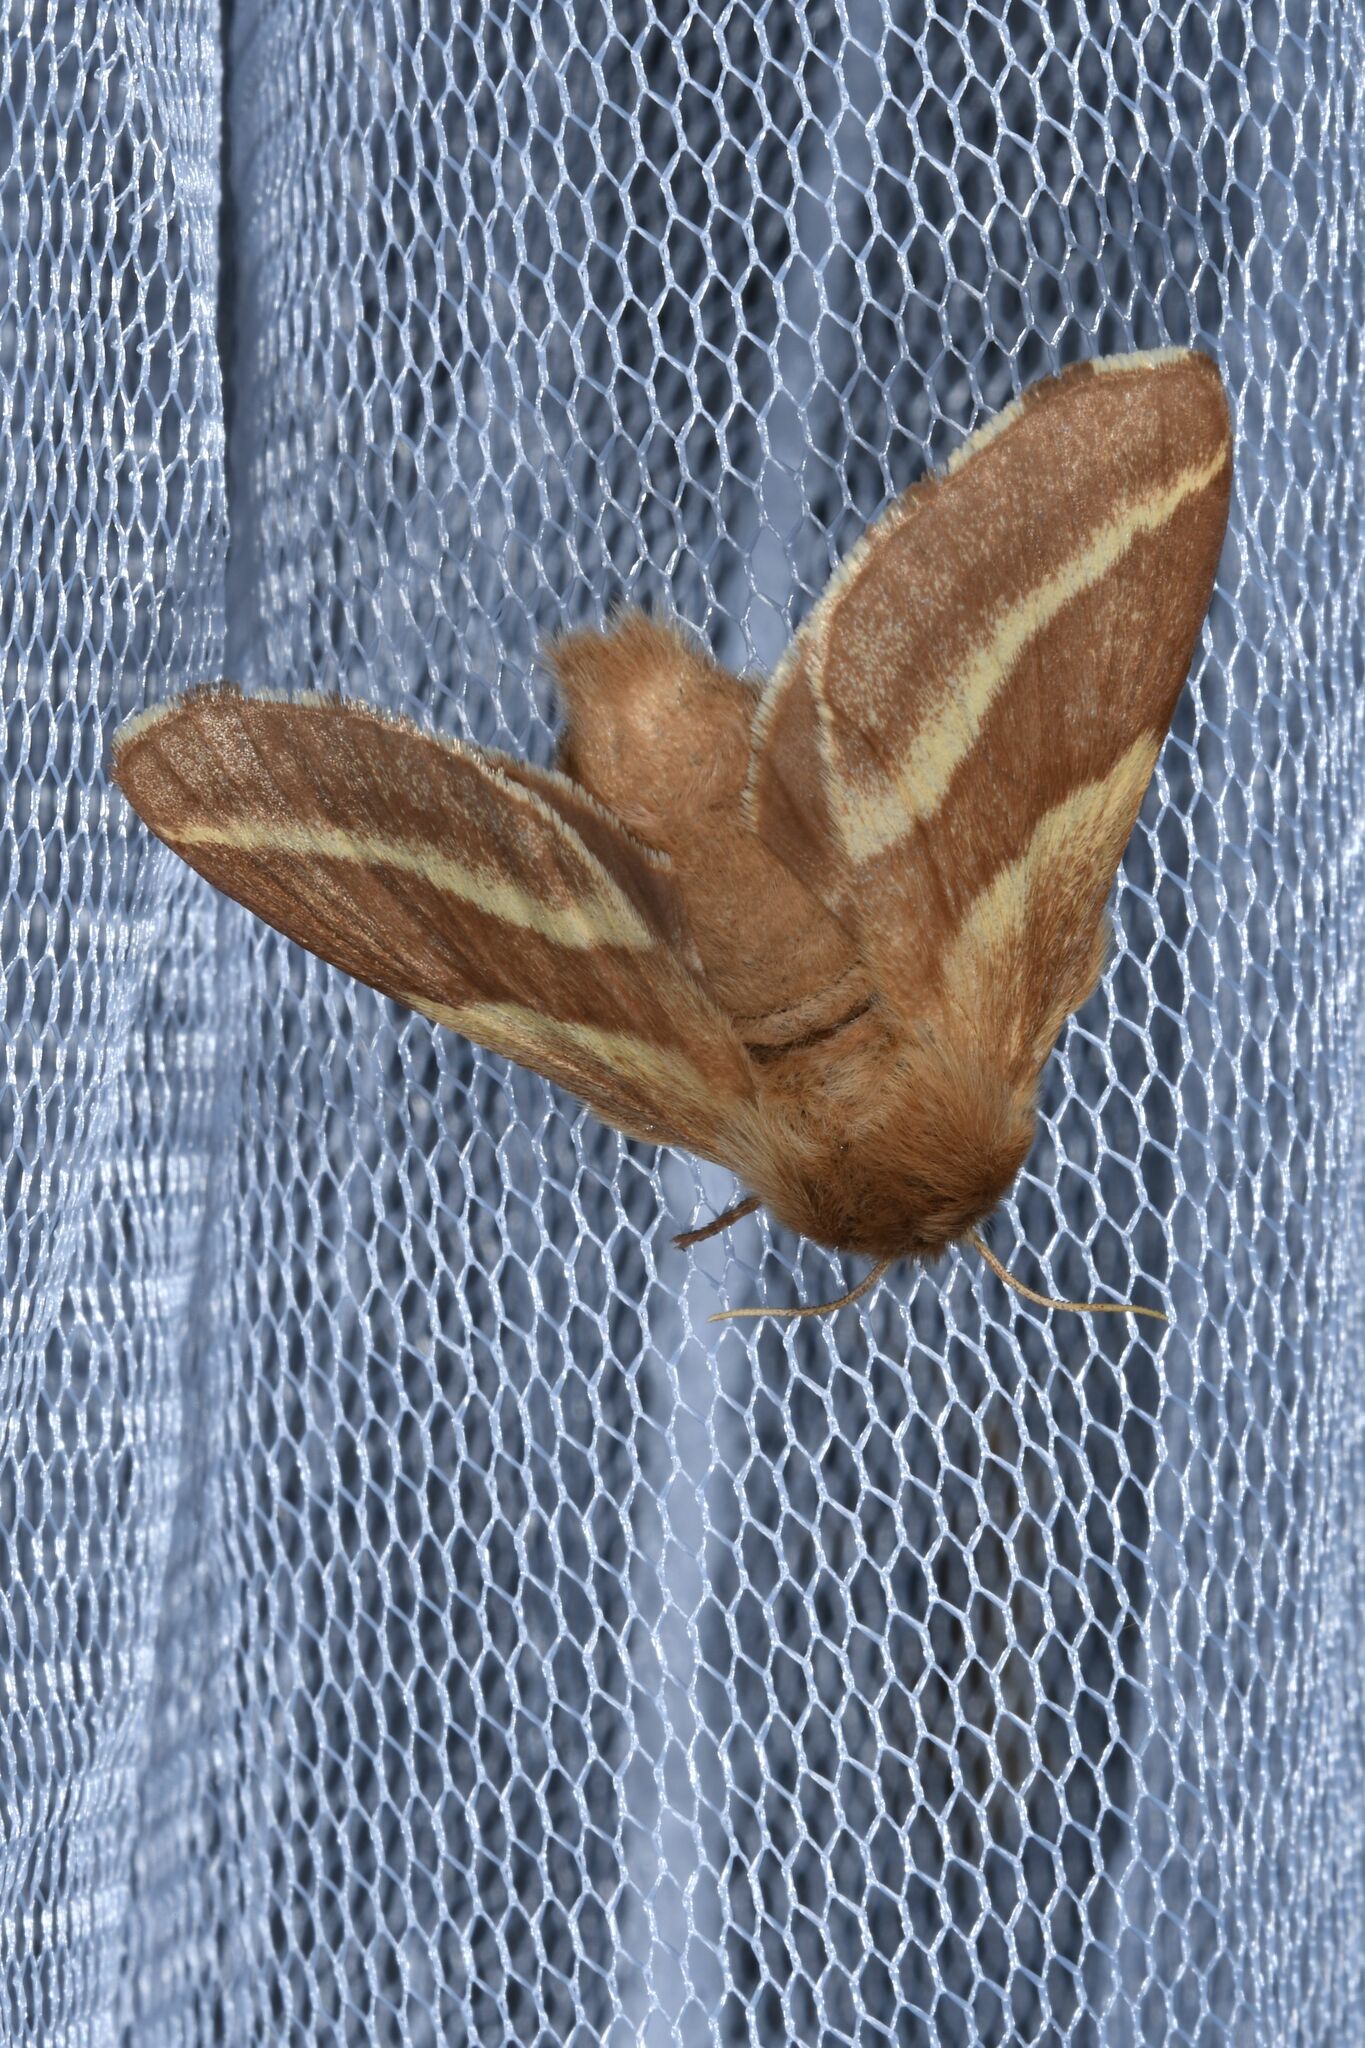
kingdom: Animalia
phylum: Arthropoda
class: Insecta
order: Lepidoptera
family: Lasiocampidae
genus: Malacosoma
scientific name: Malacosoma castrense
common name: Ground lackey
